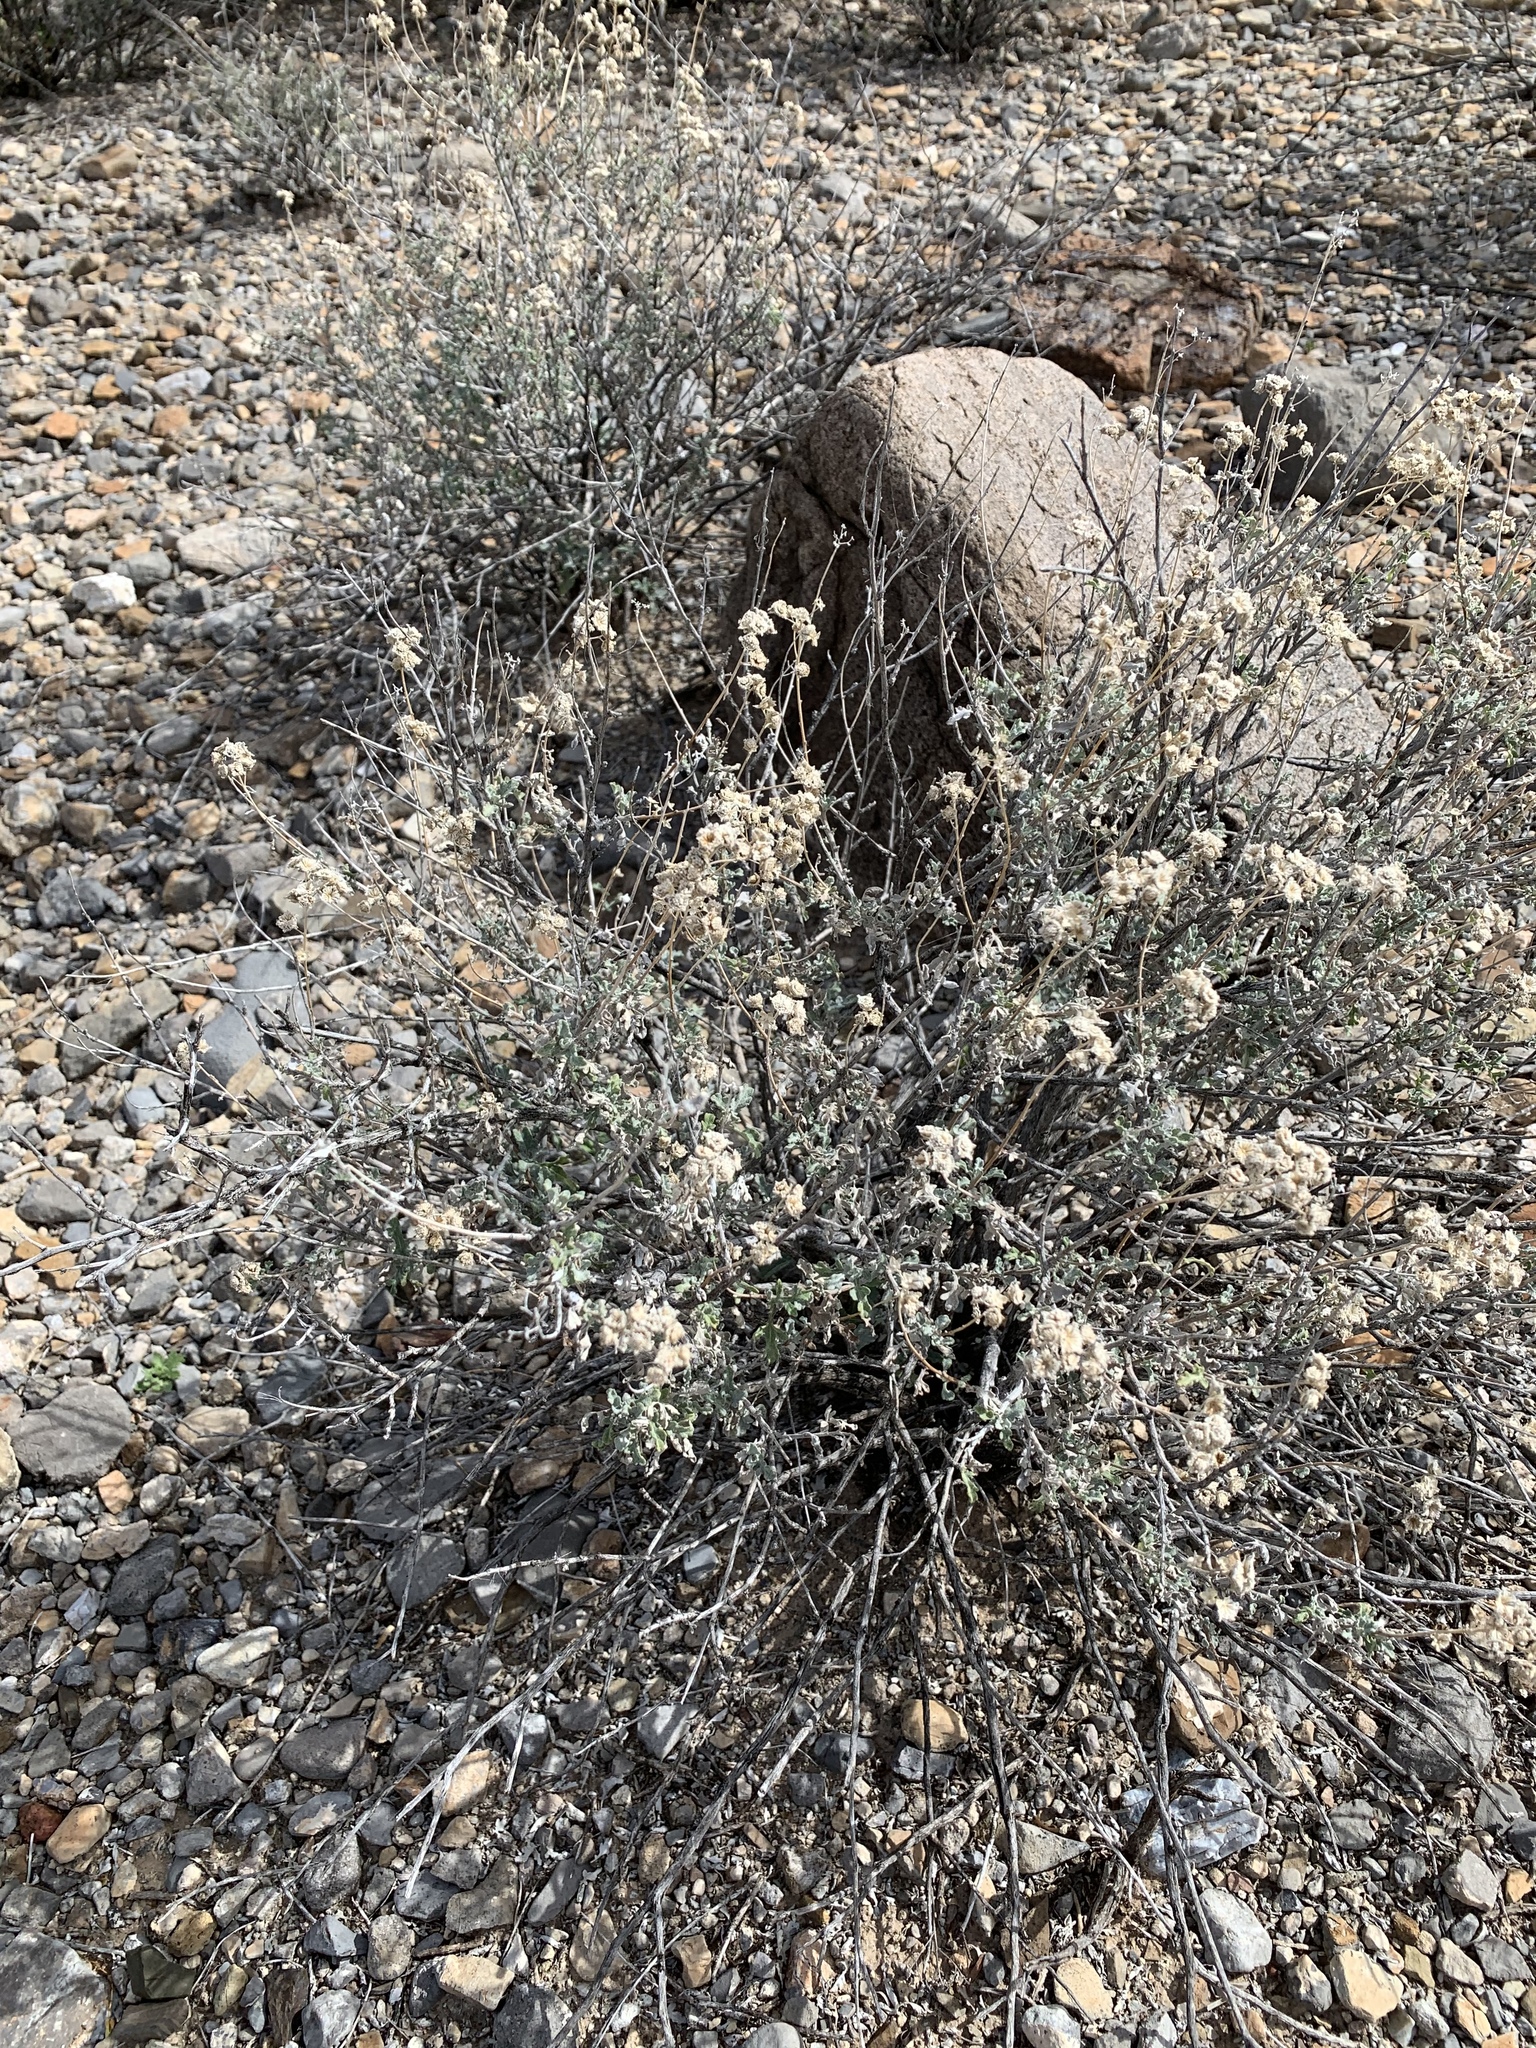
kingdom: Plantae
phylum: Tracheophyta
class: Magnoliopsida
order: Asterales
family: Asteraceae
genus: Parthenium
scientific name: Parthenium incanum
